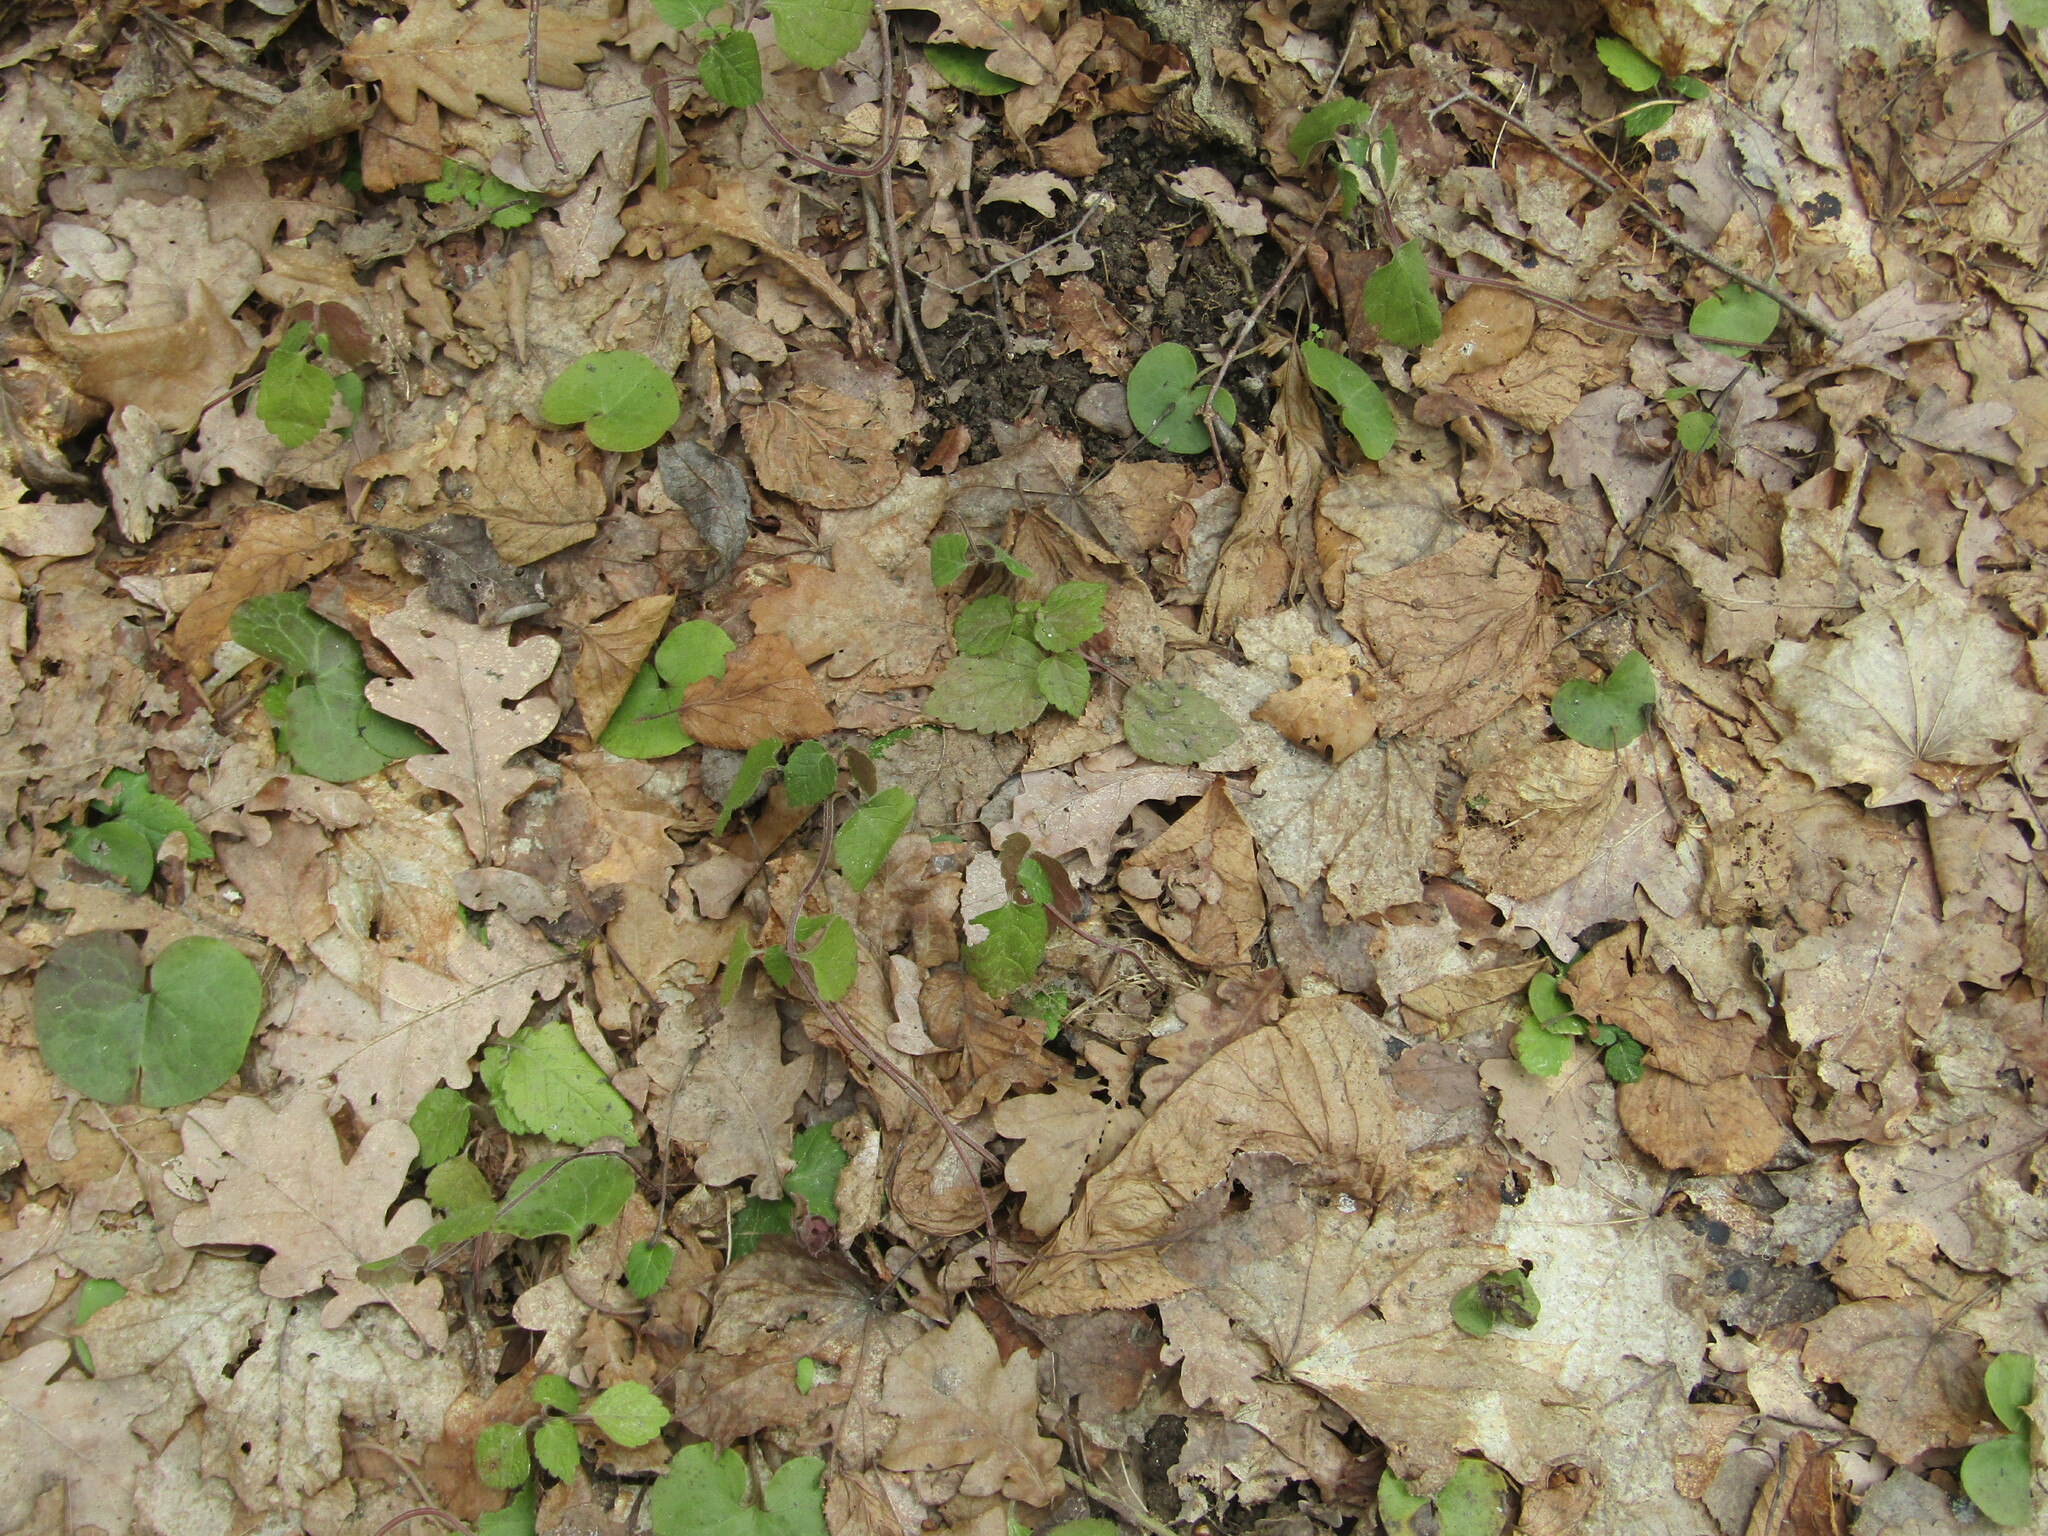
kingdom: Plantae
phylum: Tracheophyta
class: Magnoliopsida
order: Lamiales
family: Lamiaceae
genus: Lamium
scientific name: Lamium galeobdolon
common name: Yellow archangel
